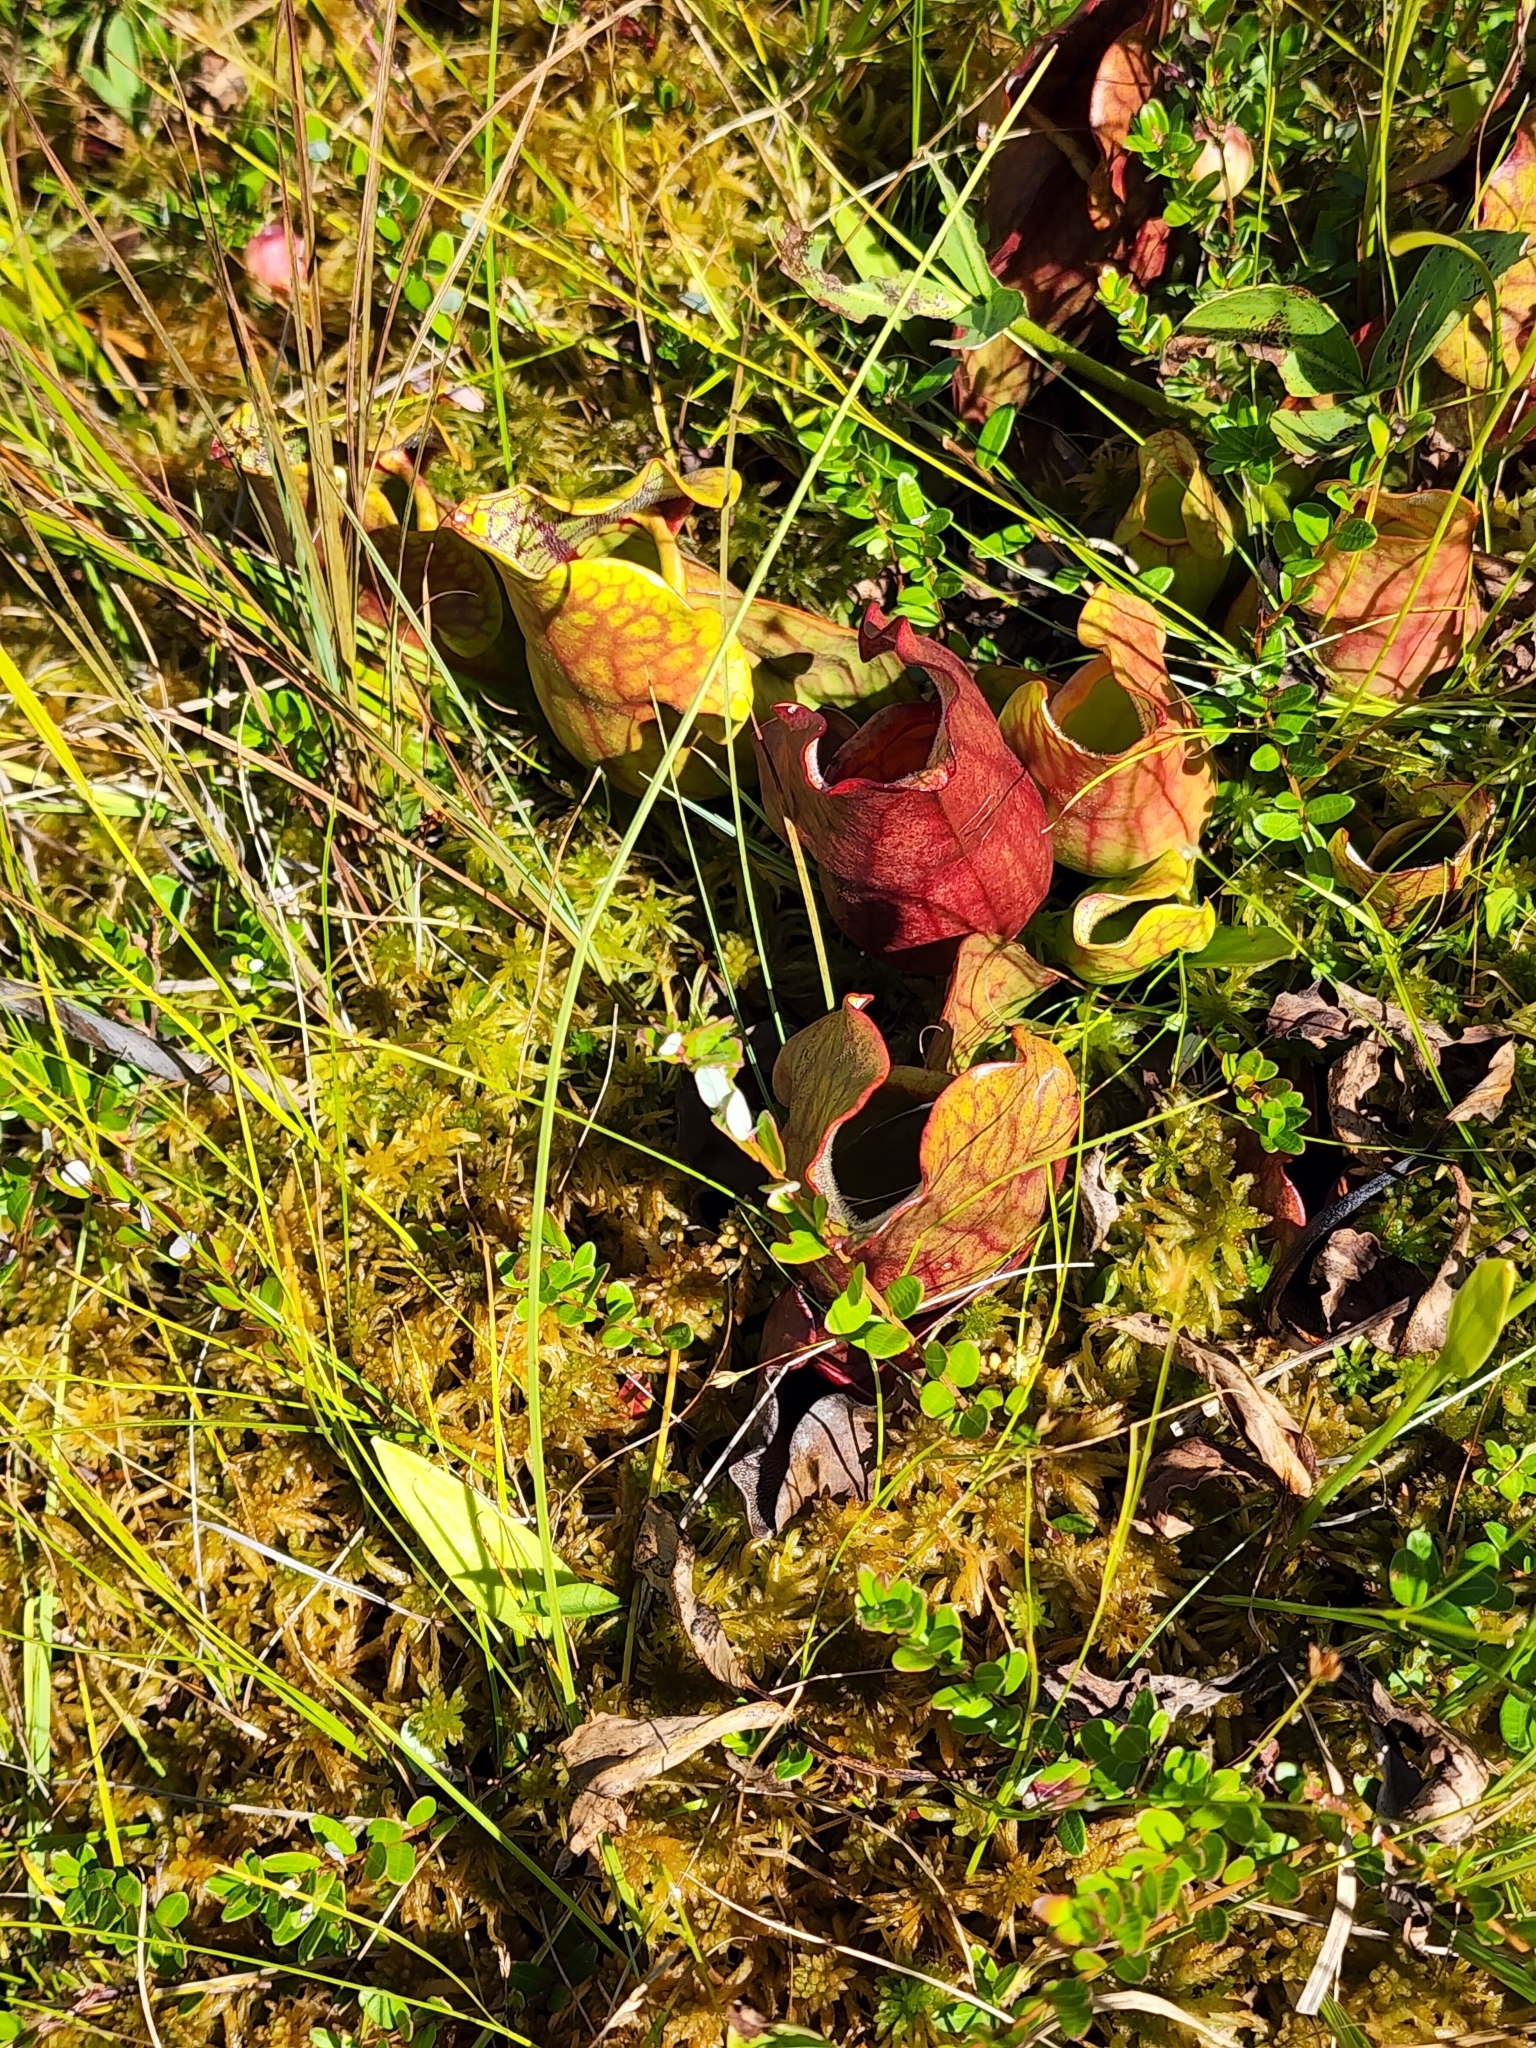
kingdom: Plantae
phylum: Tracheophyta
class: Magnoliopsida
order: Ericales
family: Sarraceniaceae
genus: Sarracenia
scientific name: Sarracenia purpurea
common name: Pitcherplant
